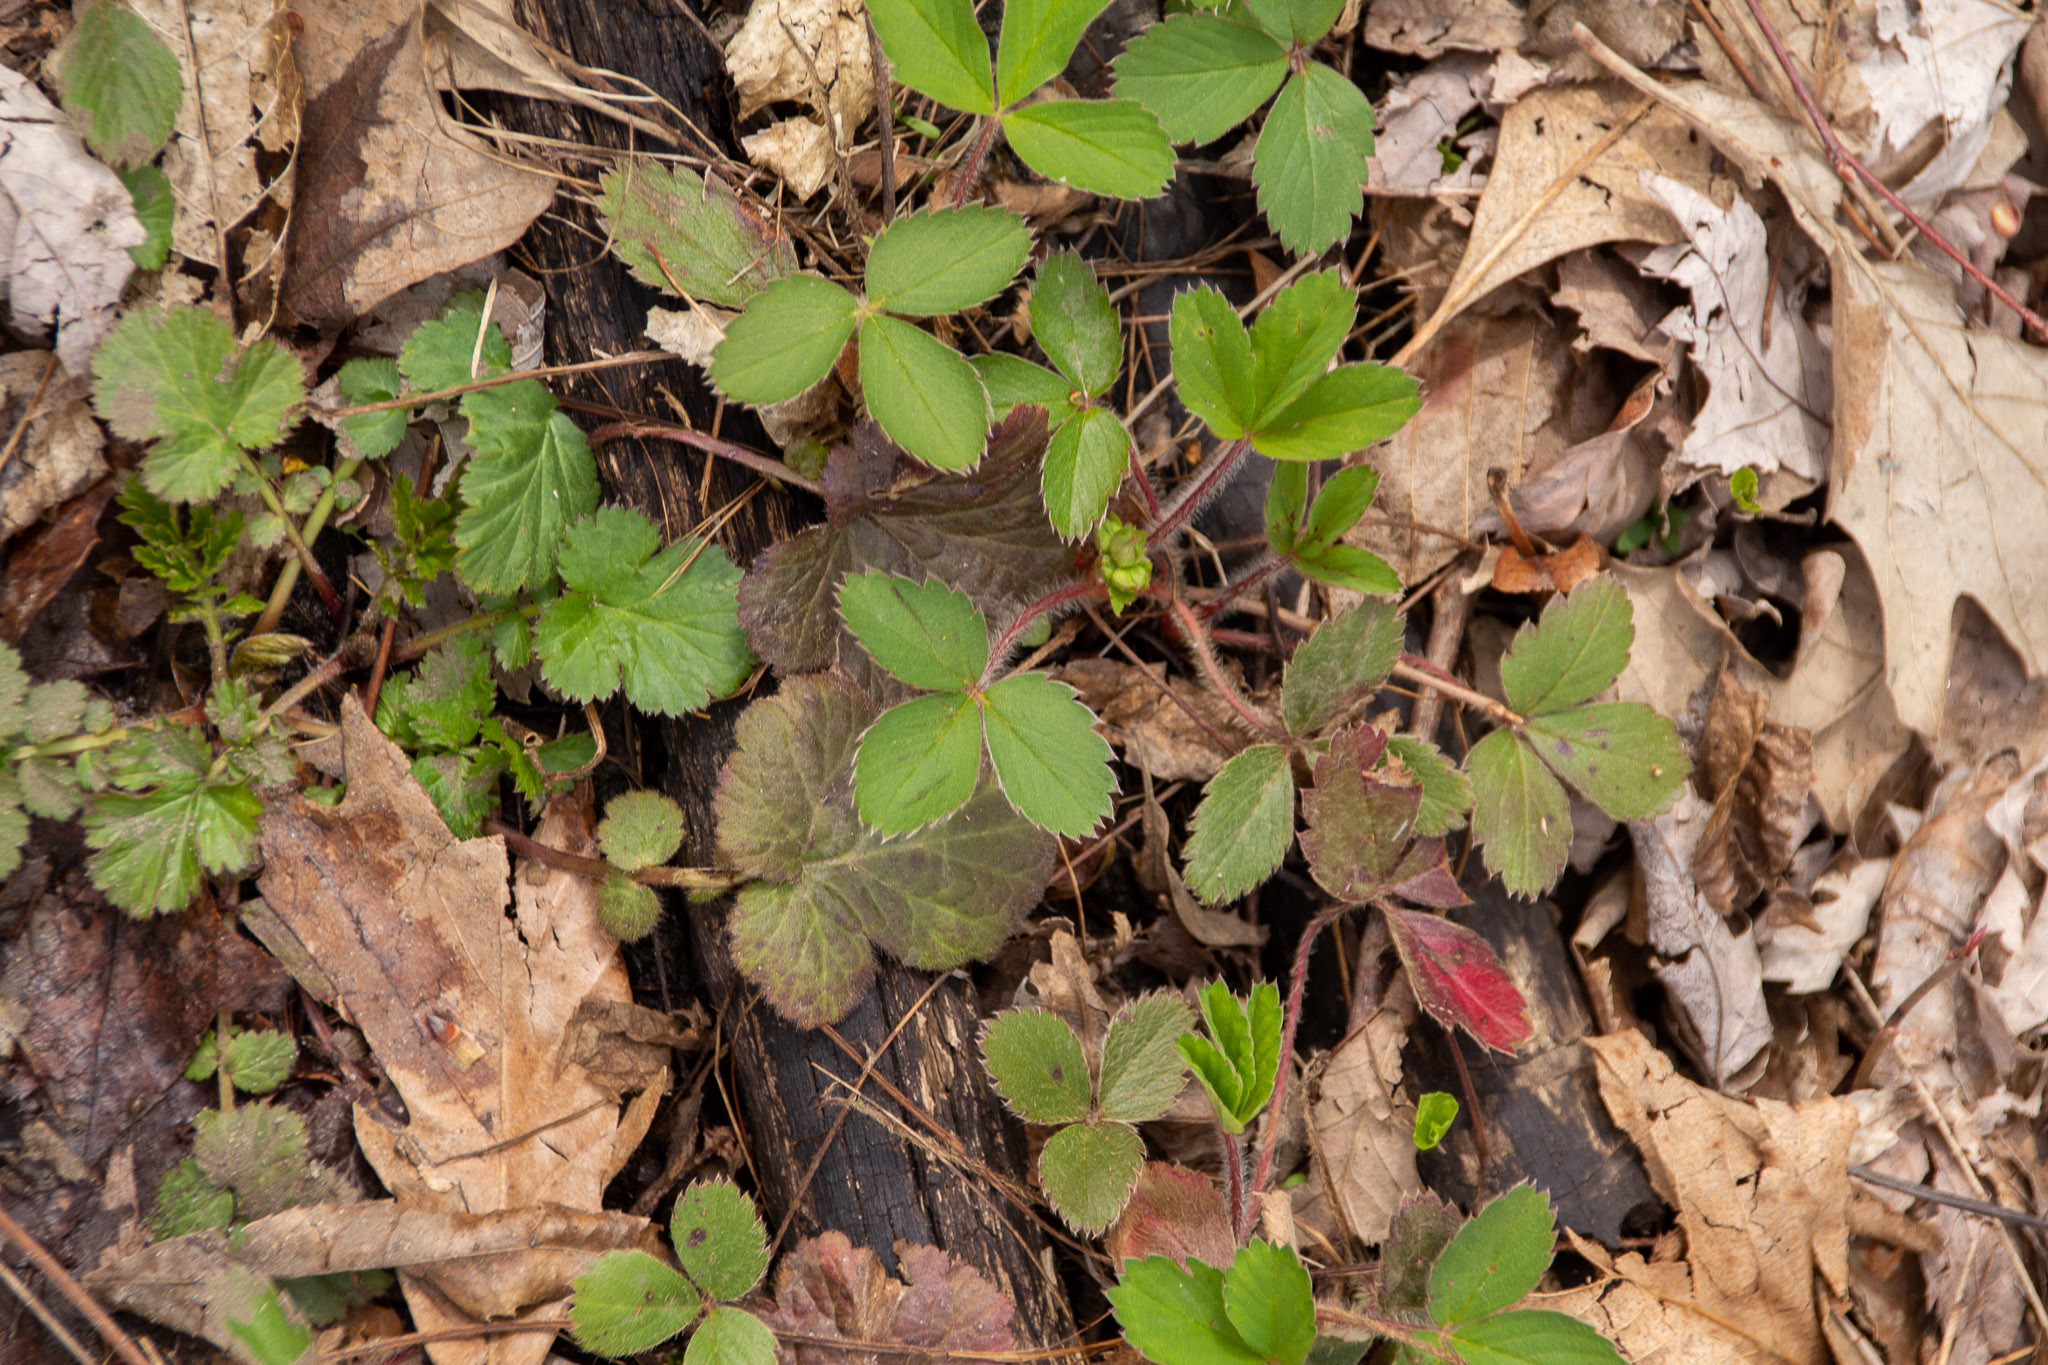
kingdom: Plantae
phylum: Tracheophyta
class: Magnoliopsida
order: Rosales
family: Rosaceae
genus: Fragaria
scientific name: Fragaria virginiana
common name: Thickleaved wild strawberry
